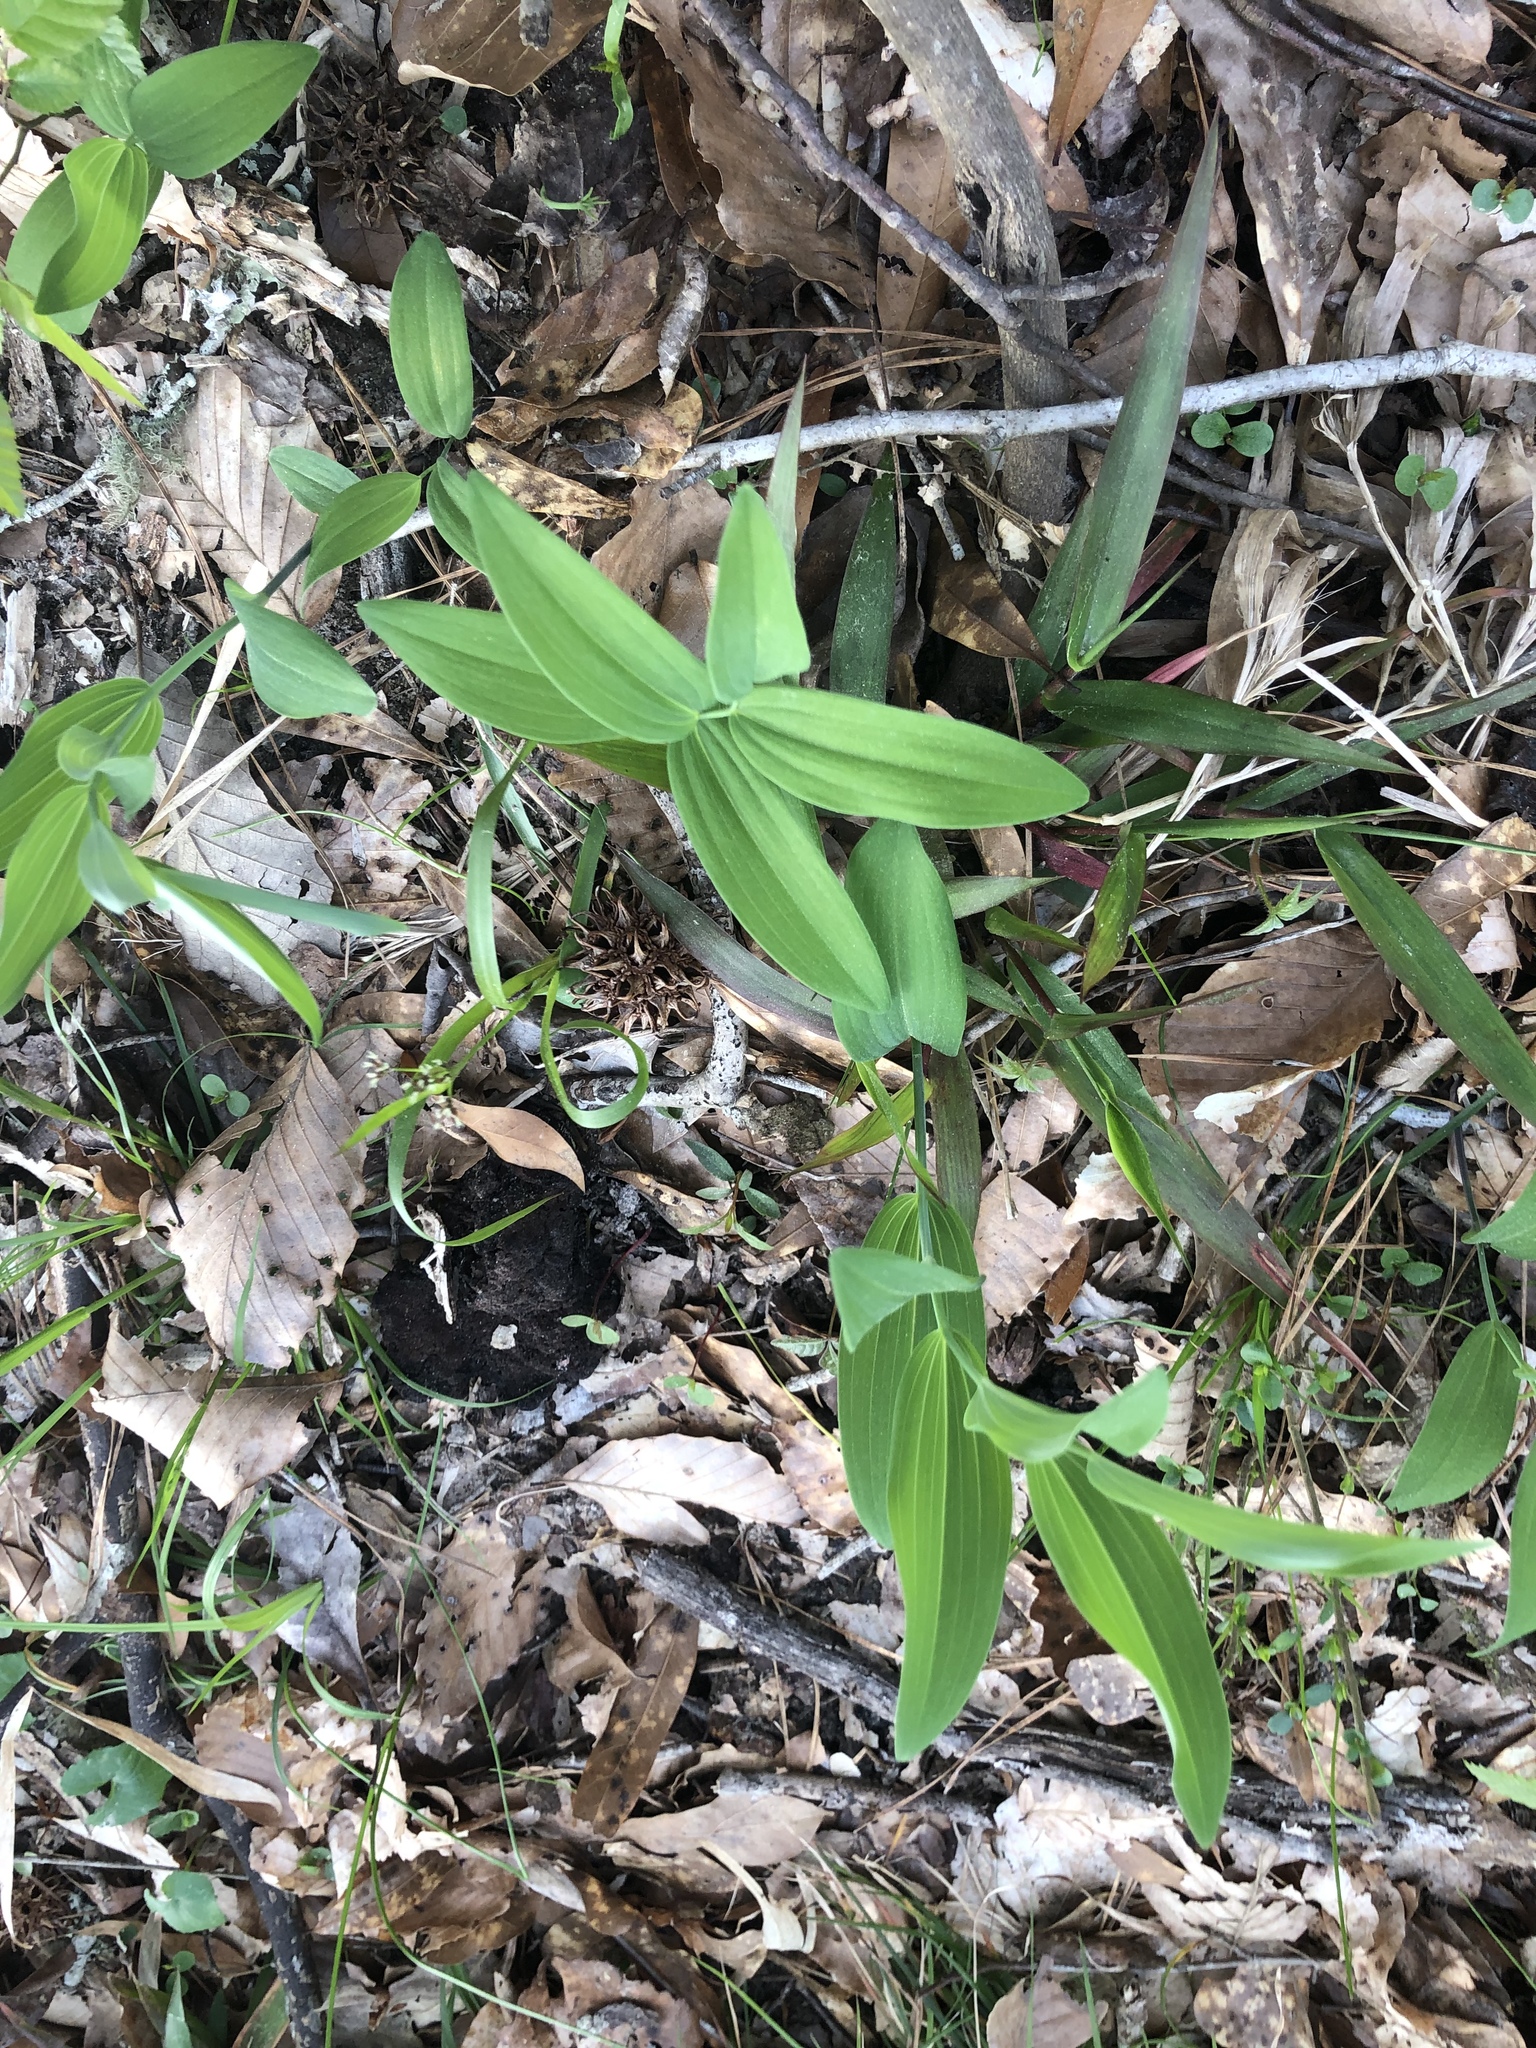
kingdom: Plantae
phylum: Tracheophyta
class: Liliopsida
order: Asparagales
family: Asparagaceae
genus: Polygonatum
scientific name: Polygonatum biflorum
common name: American solomon's-seal
